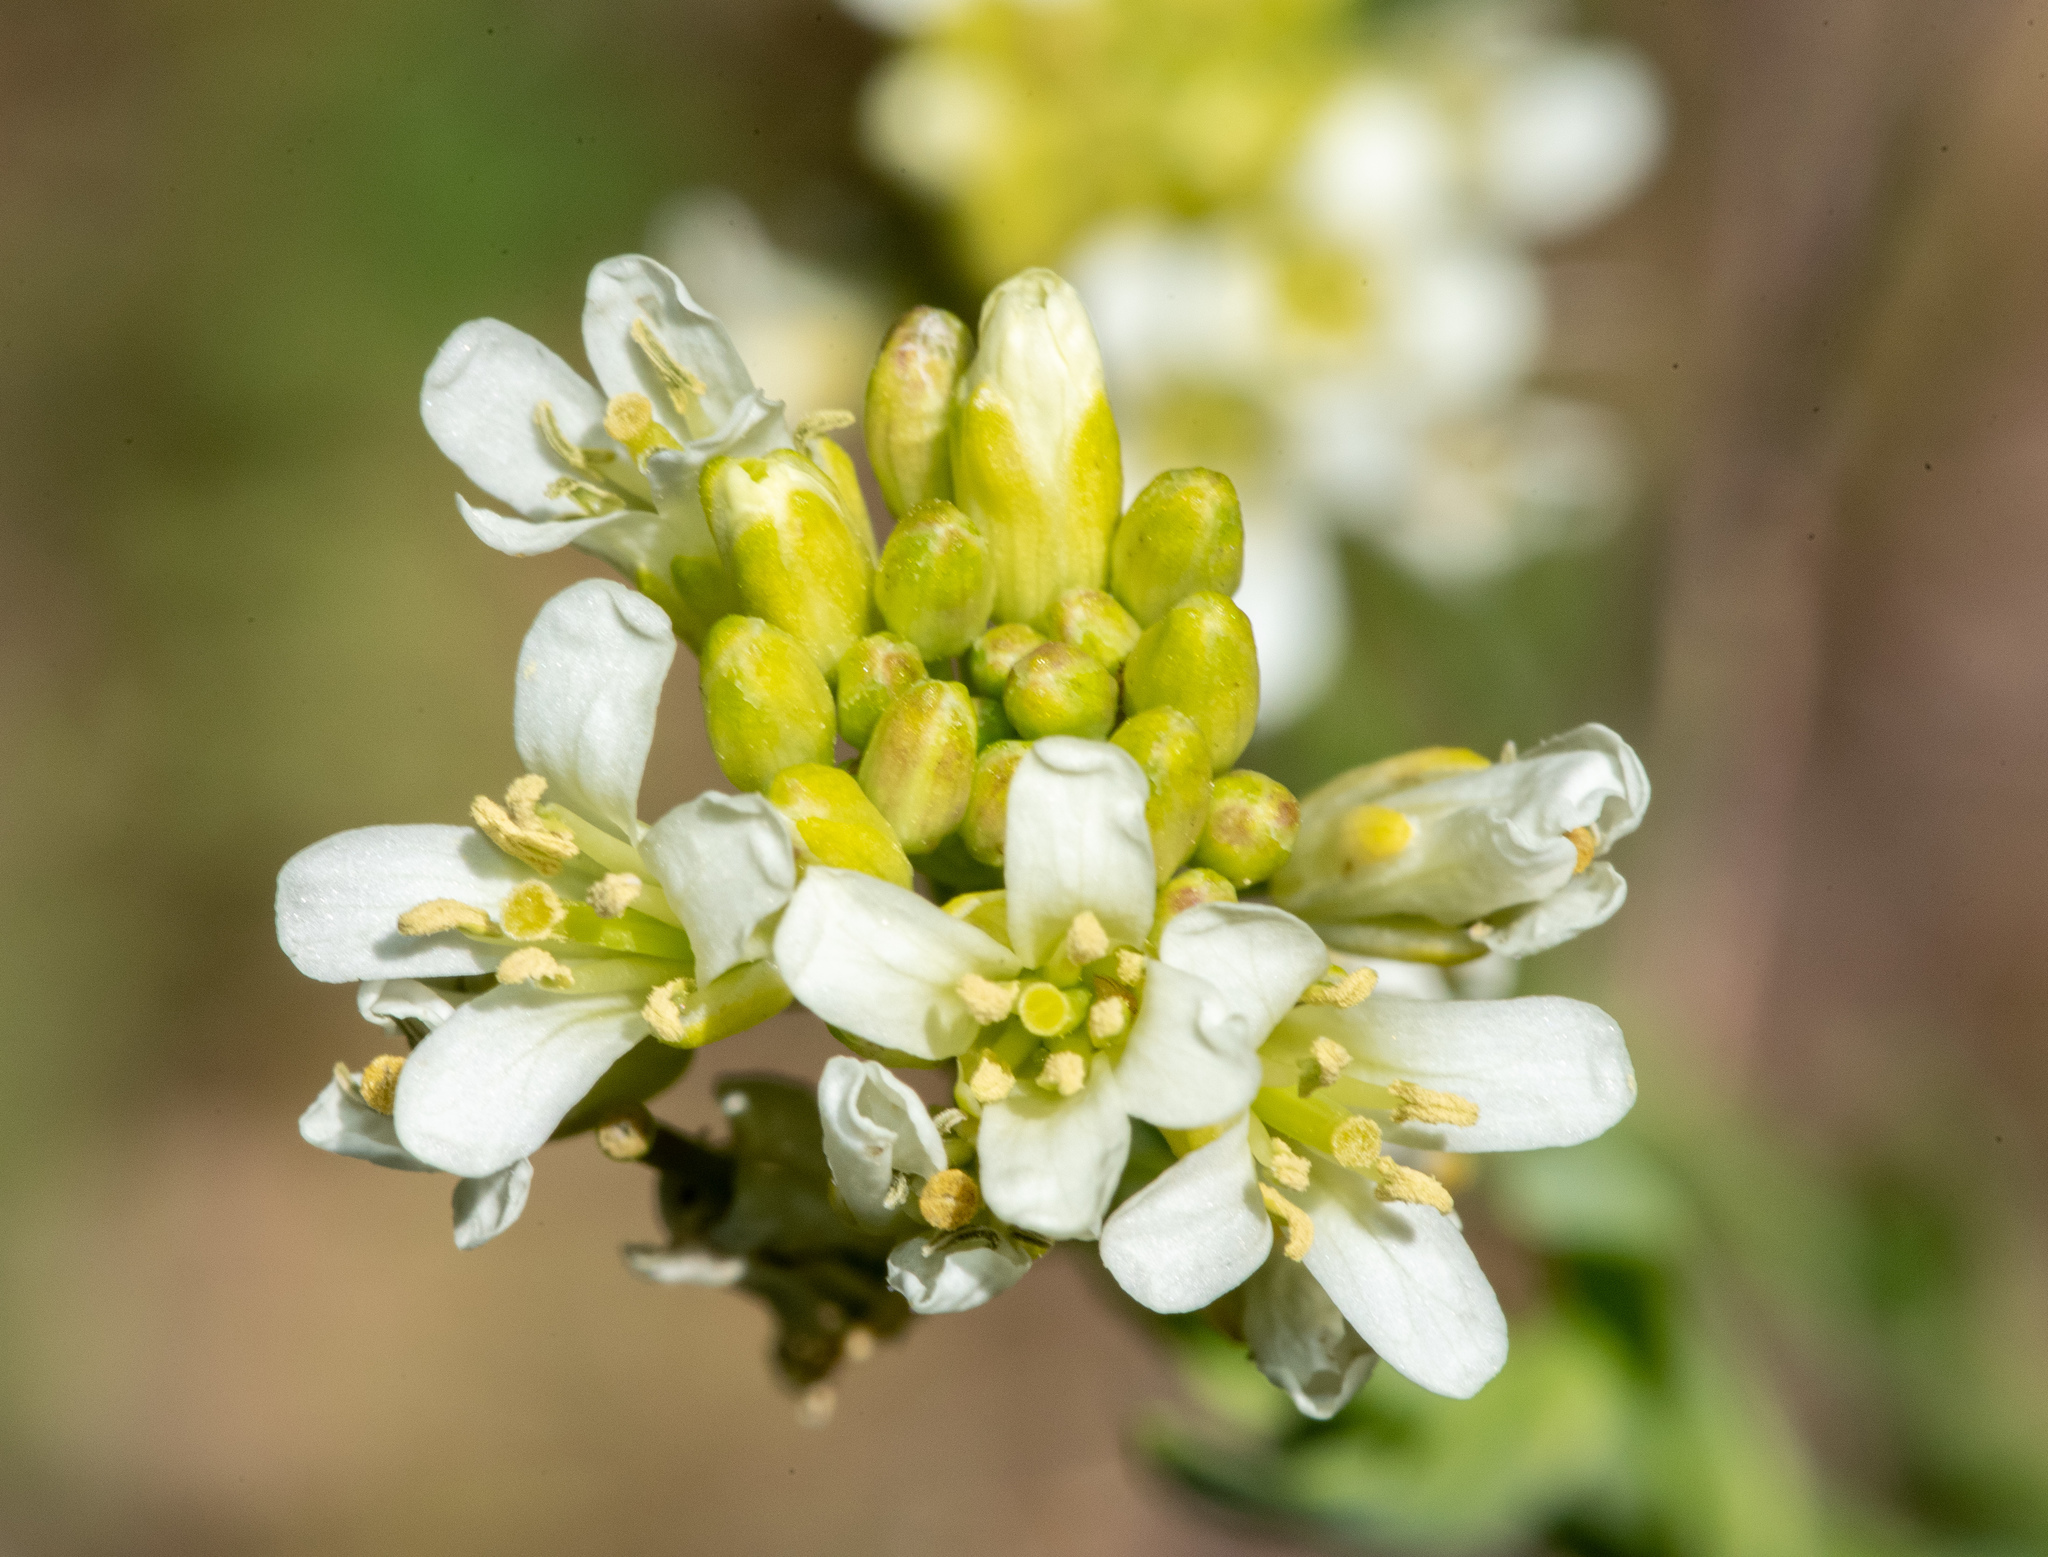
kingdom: Plantae
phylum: Tracheophyta
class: Magnoliopsida
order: Brassicales
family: Brassicaceae
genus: Turritis
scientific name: Turritis glabra
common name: Tower rockcress
